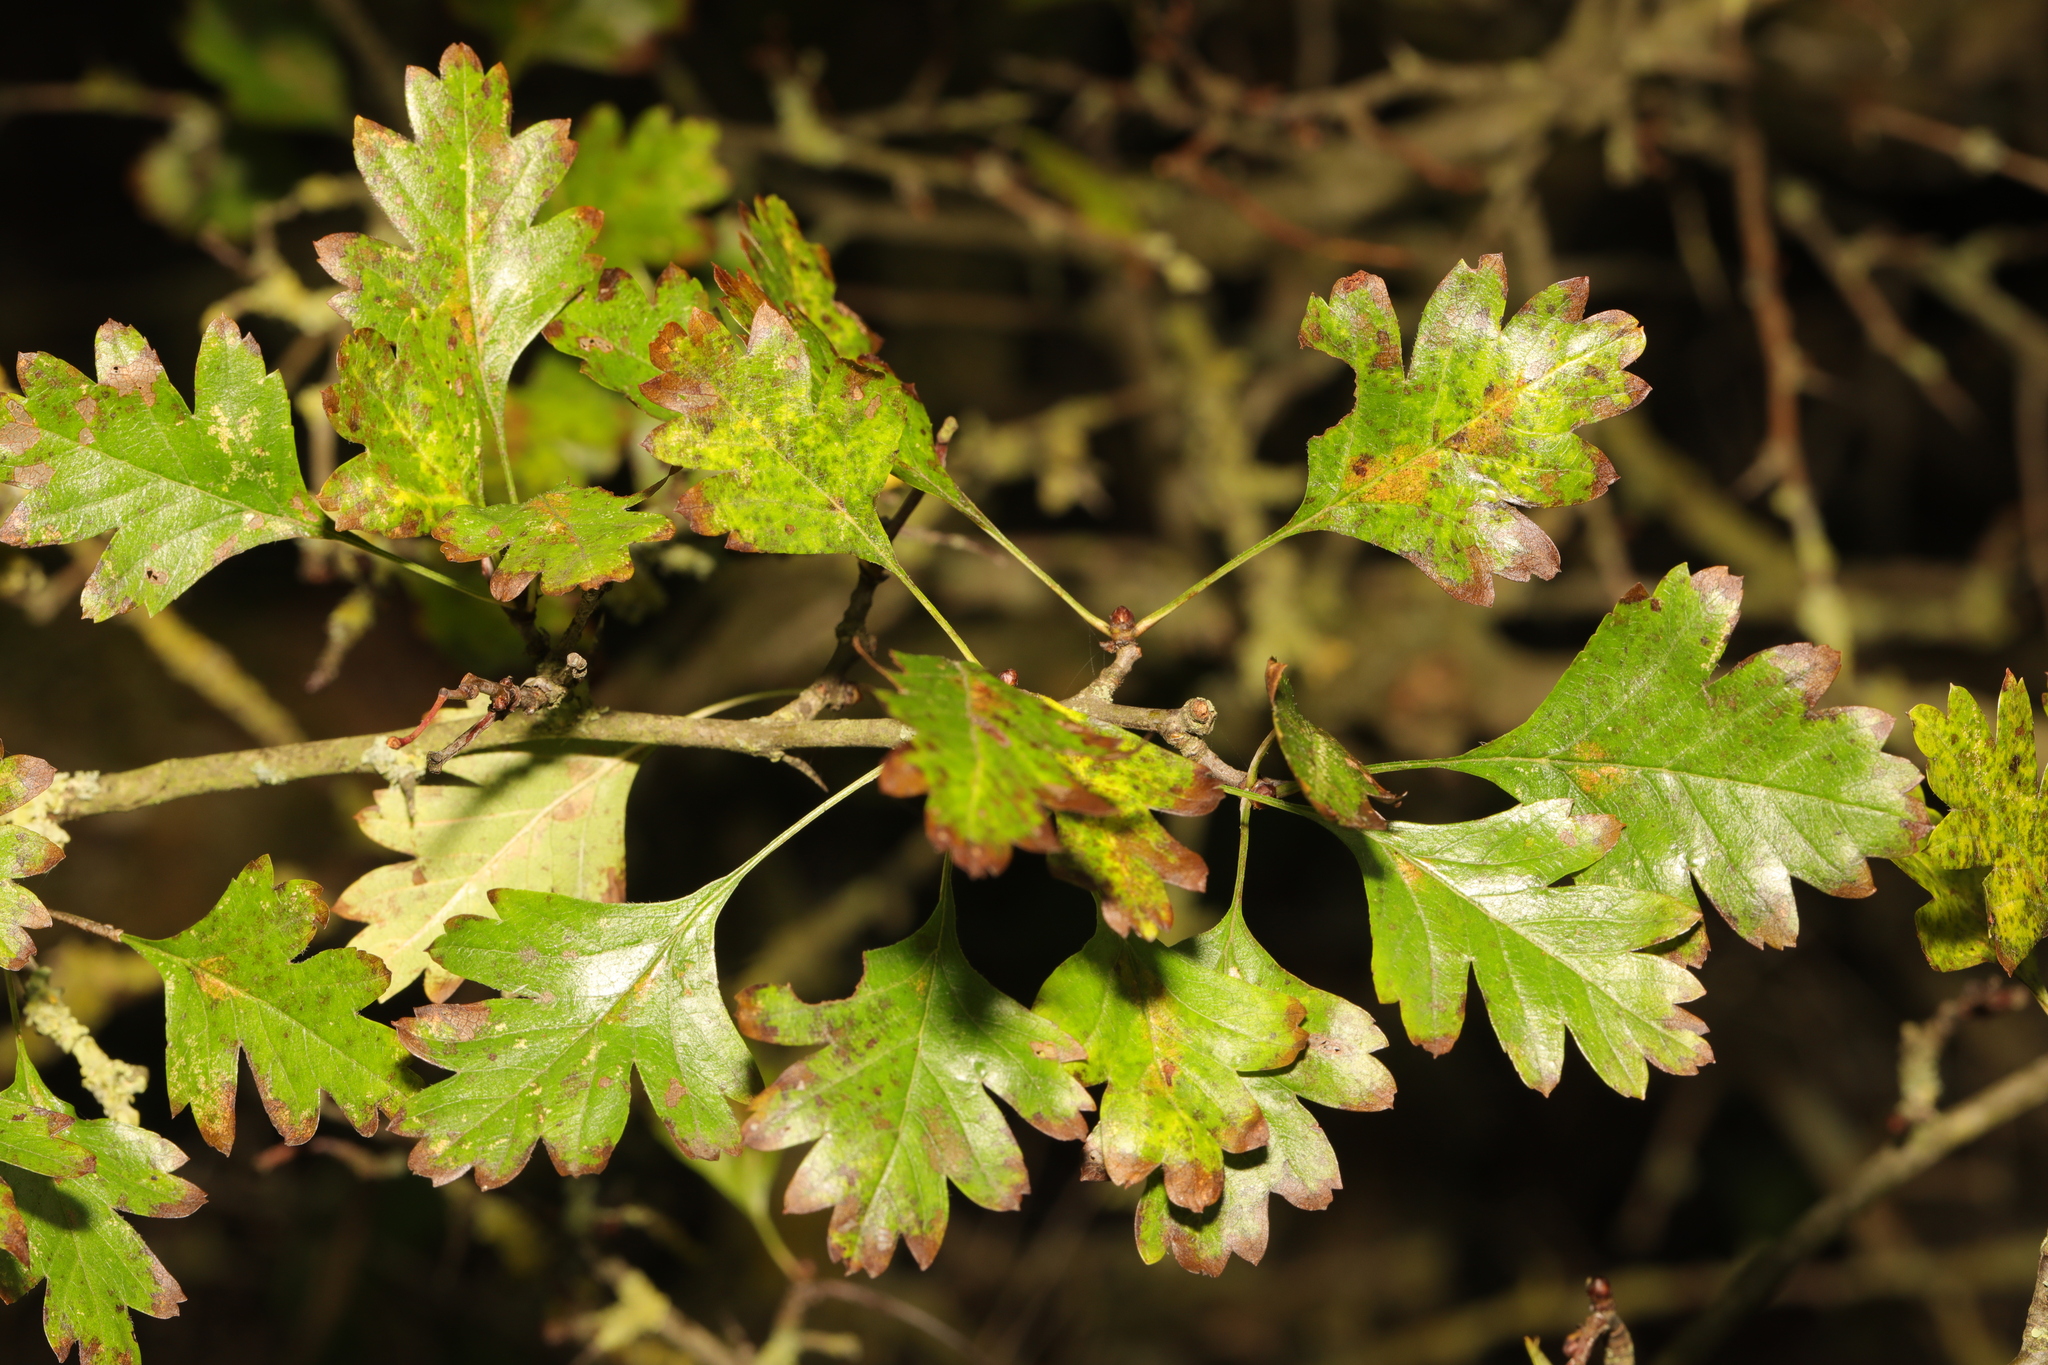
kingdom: Plantae
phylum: Tracheophyta
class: Magnoliopsida
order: Rosales
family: Rosaceae
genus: Crataegus
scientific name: Crataegus monogyna
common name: Hawthorn
